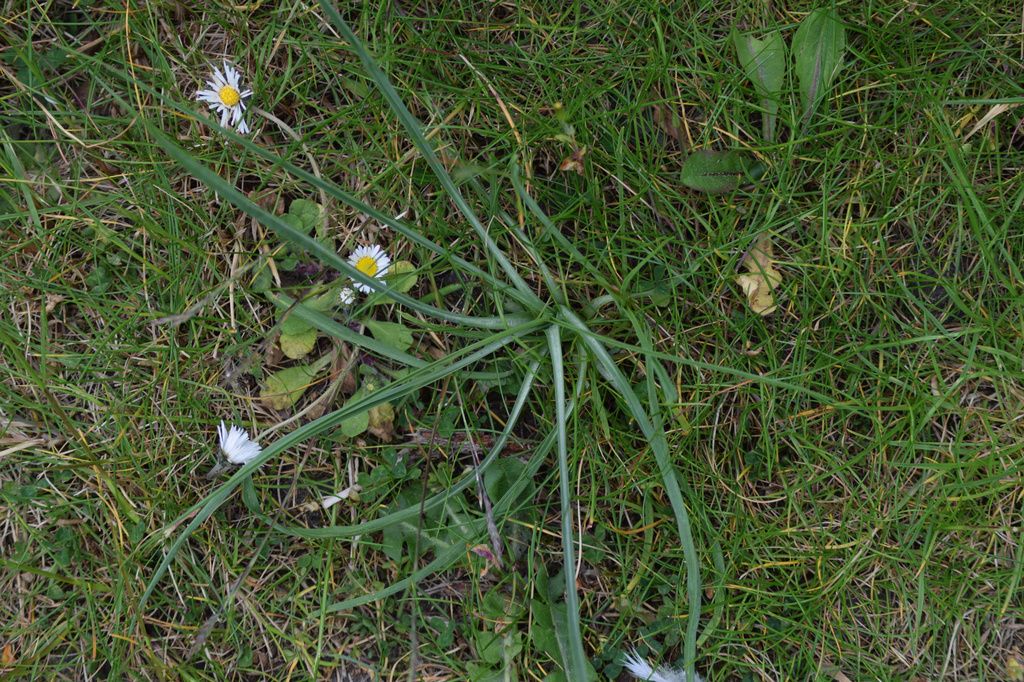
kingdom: Plantae
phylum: Tracheophyta
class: Magnoliopsida
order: Asterales
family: Asteraceae
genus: Tragopogon
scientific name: Tragopogon pratensis
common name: Goat's-beard
